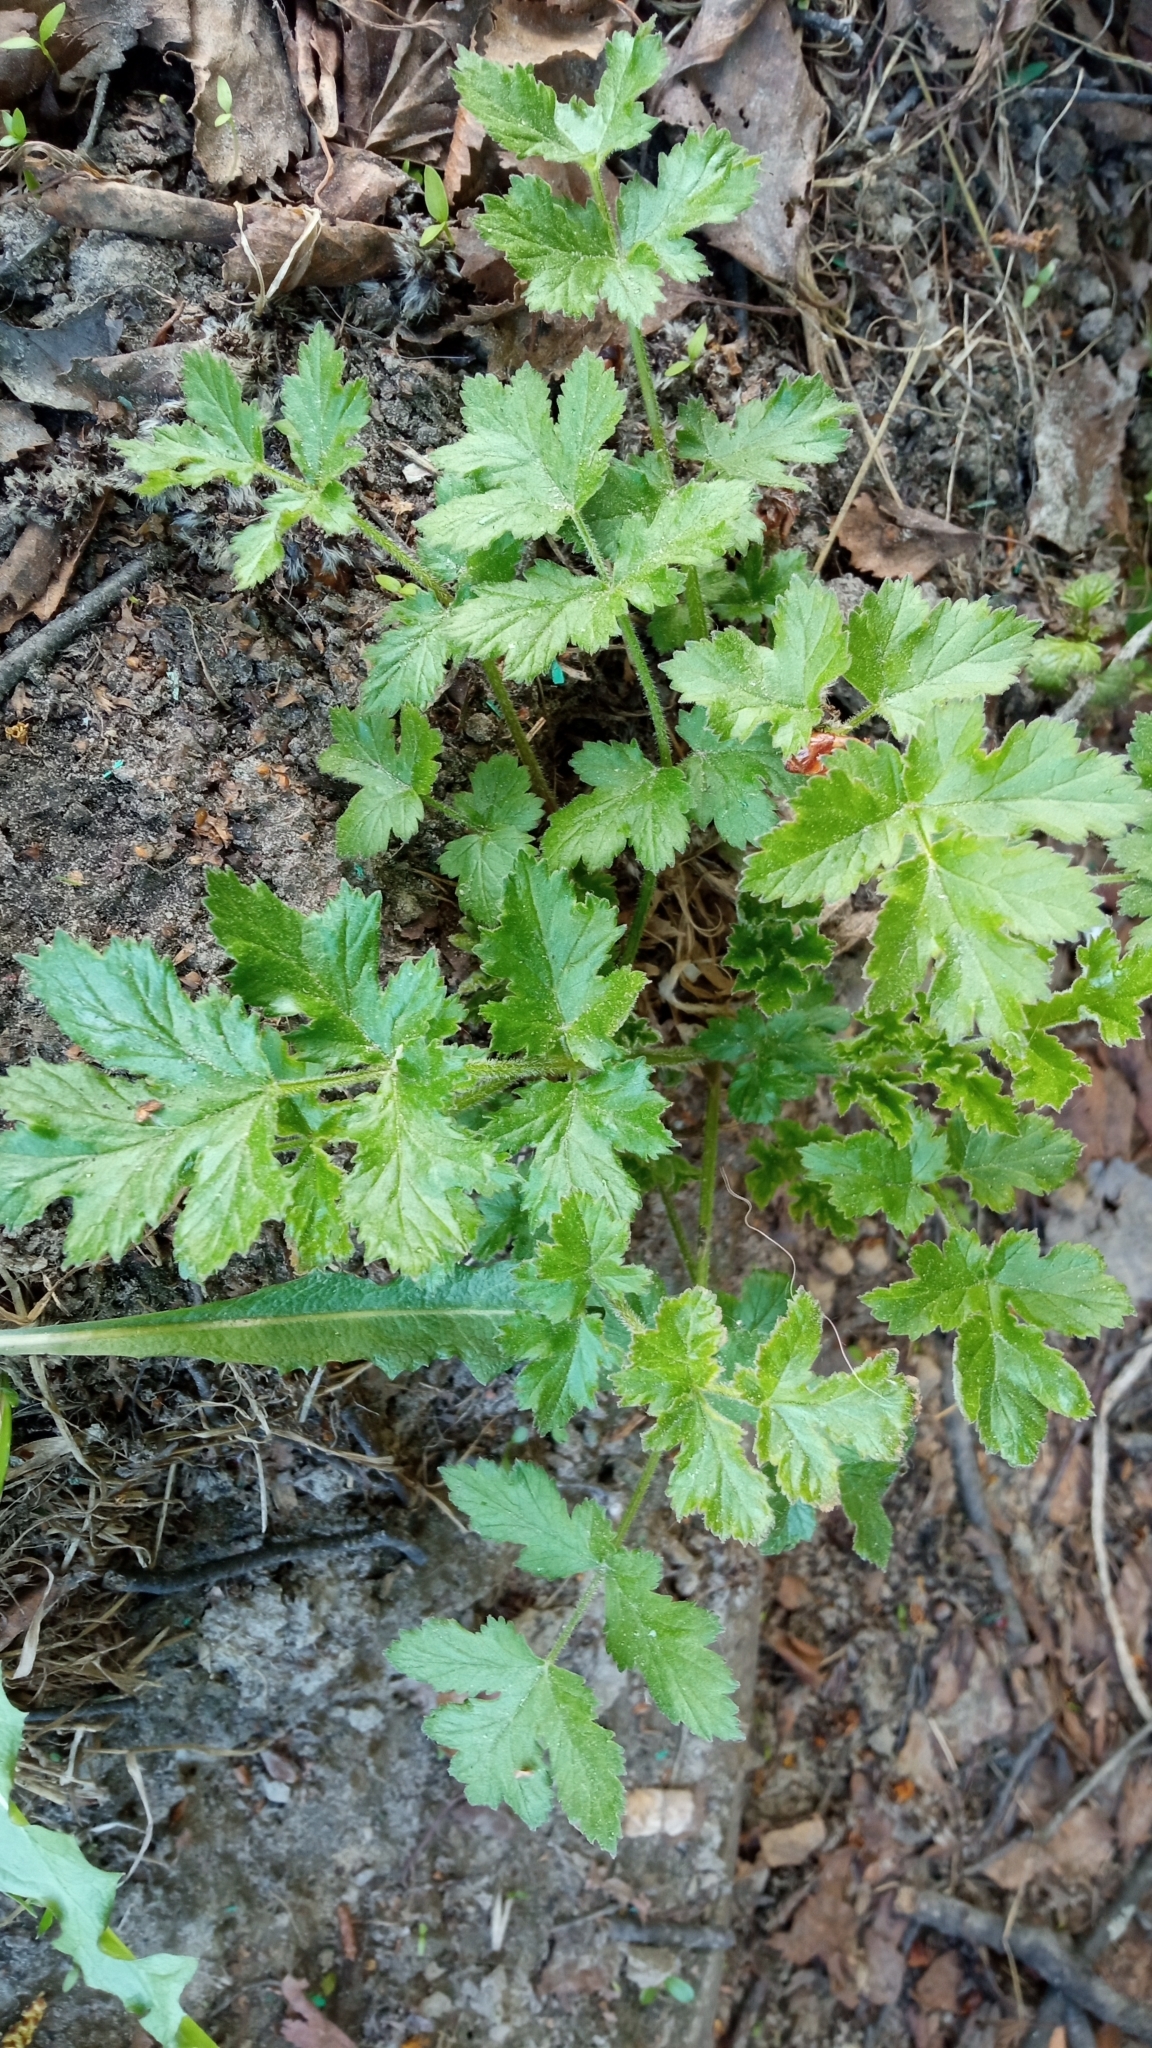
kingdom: Plantae
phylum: Tracheophyta
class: Magnoliopsida
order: Apiales
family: Apiaceae
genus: Heracleum
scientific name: Heracleum sphondylium
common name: Hogweed
